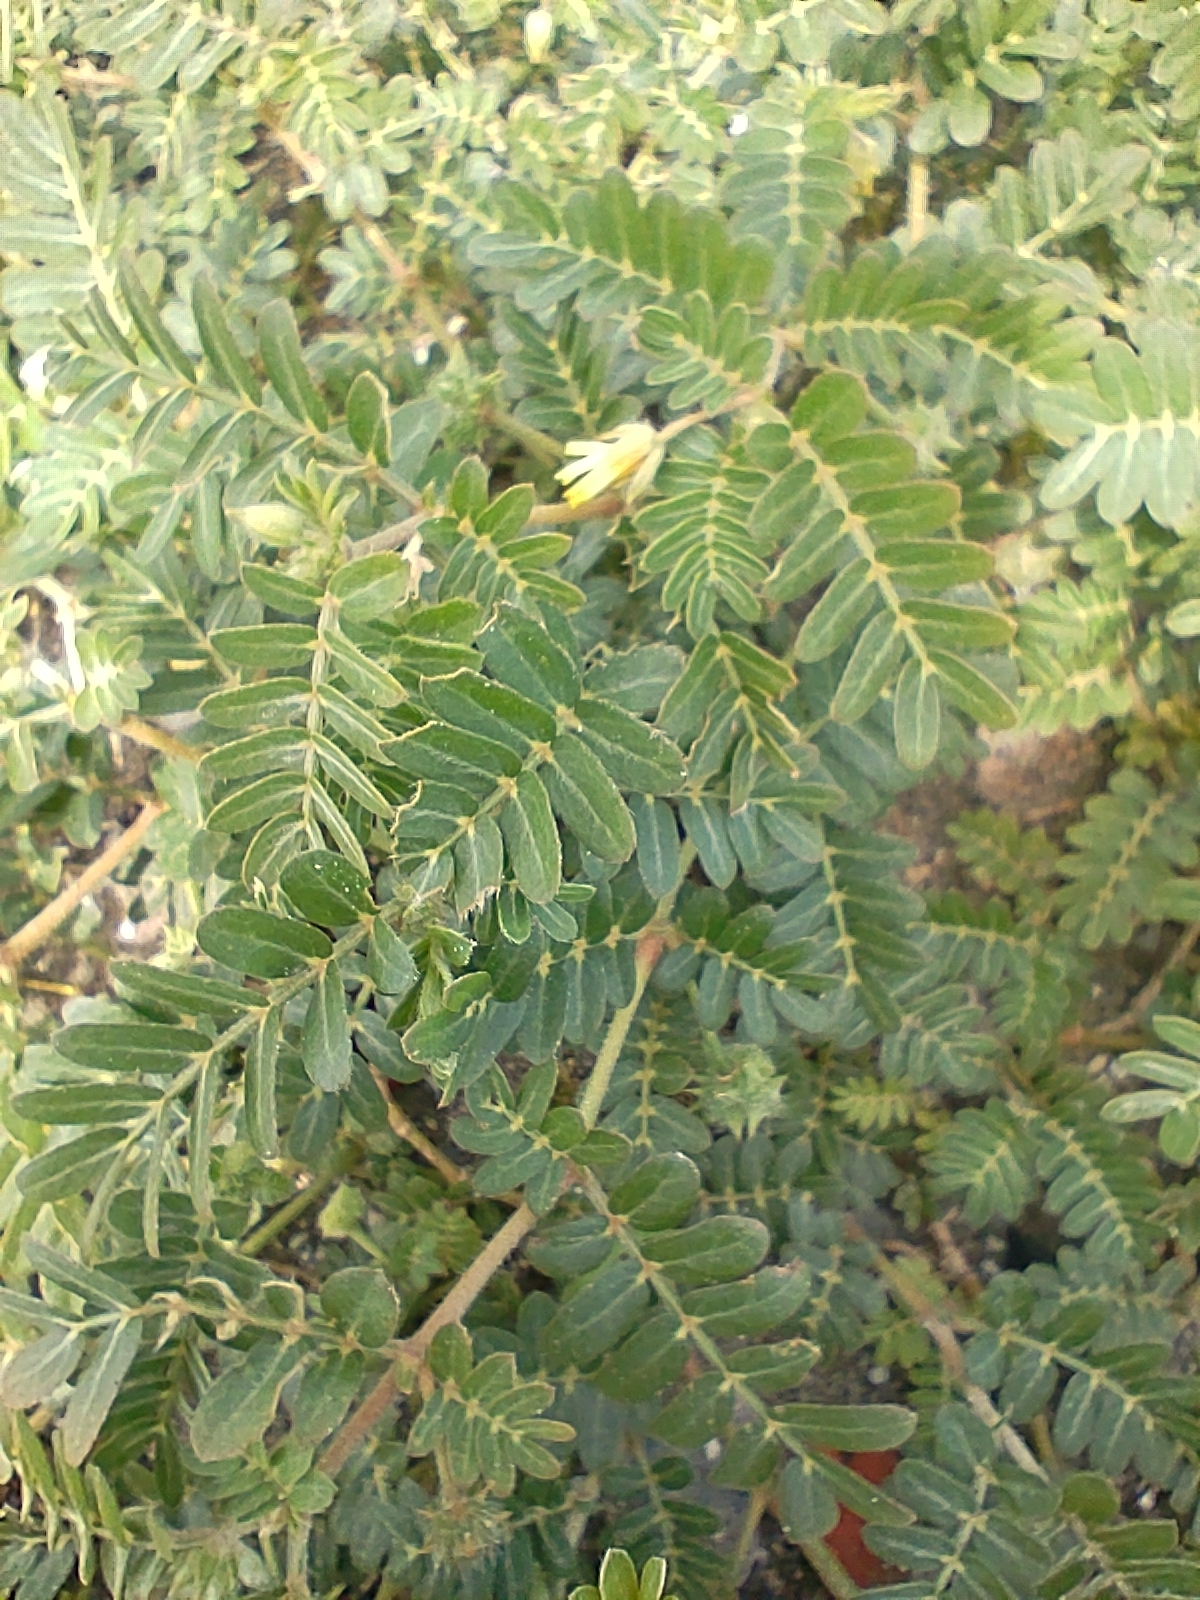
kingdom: Plantae
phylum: Tracheophyta
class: Magnoliopsida
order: Zygophyllales
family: Zygophyllaceae
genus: Tribulus
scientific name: Tribulus cistoides
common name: Jamaican feverplant
